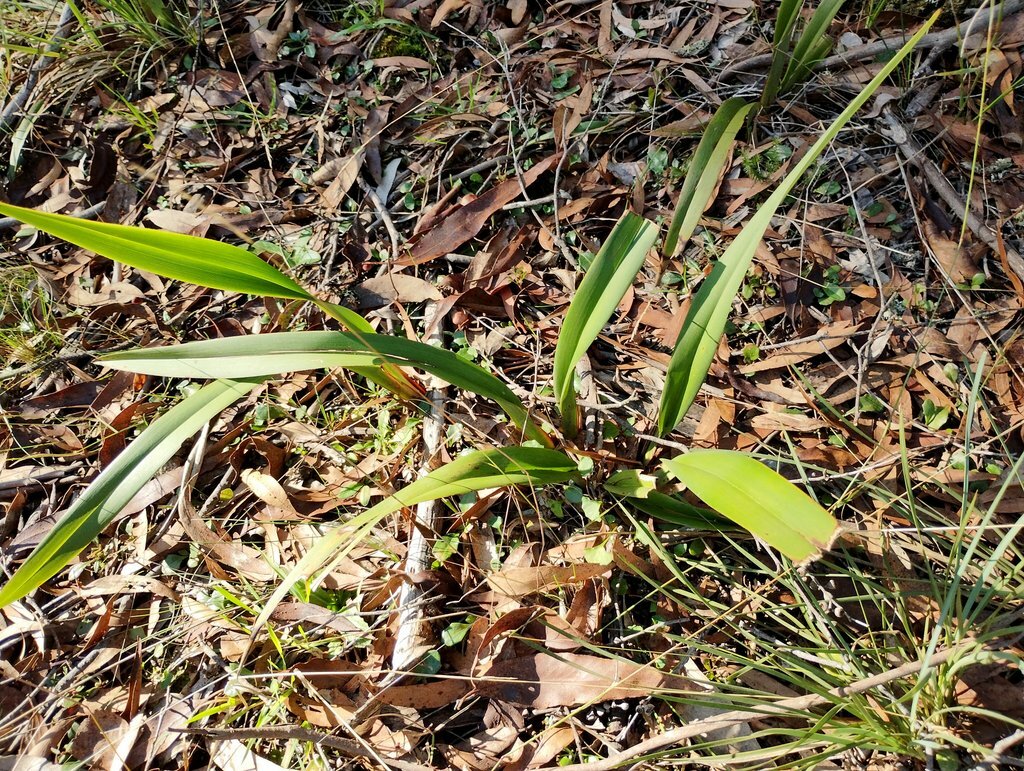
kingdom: Plantae
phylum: Tracheophyta
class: Liliopsida
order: Asparagales
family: Asphodelaceae
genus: Dianella
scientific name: Dianella tasmanica
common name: Tasman flax-lily
